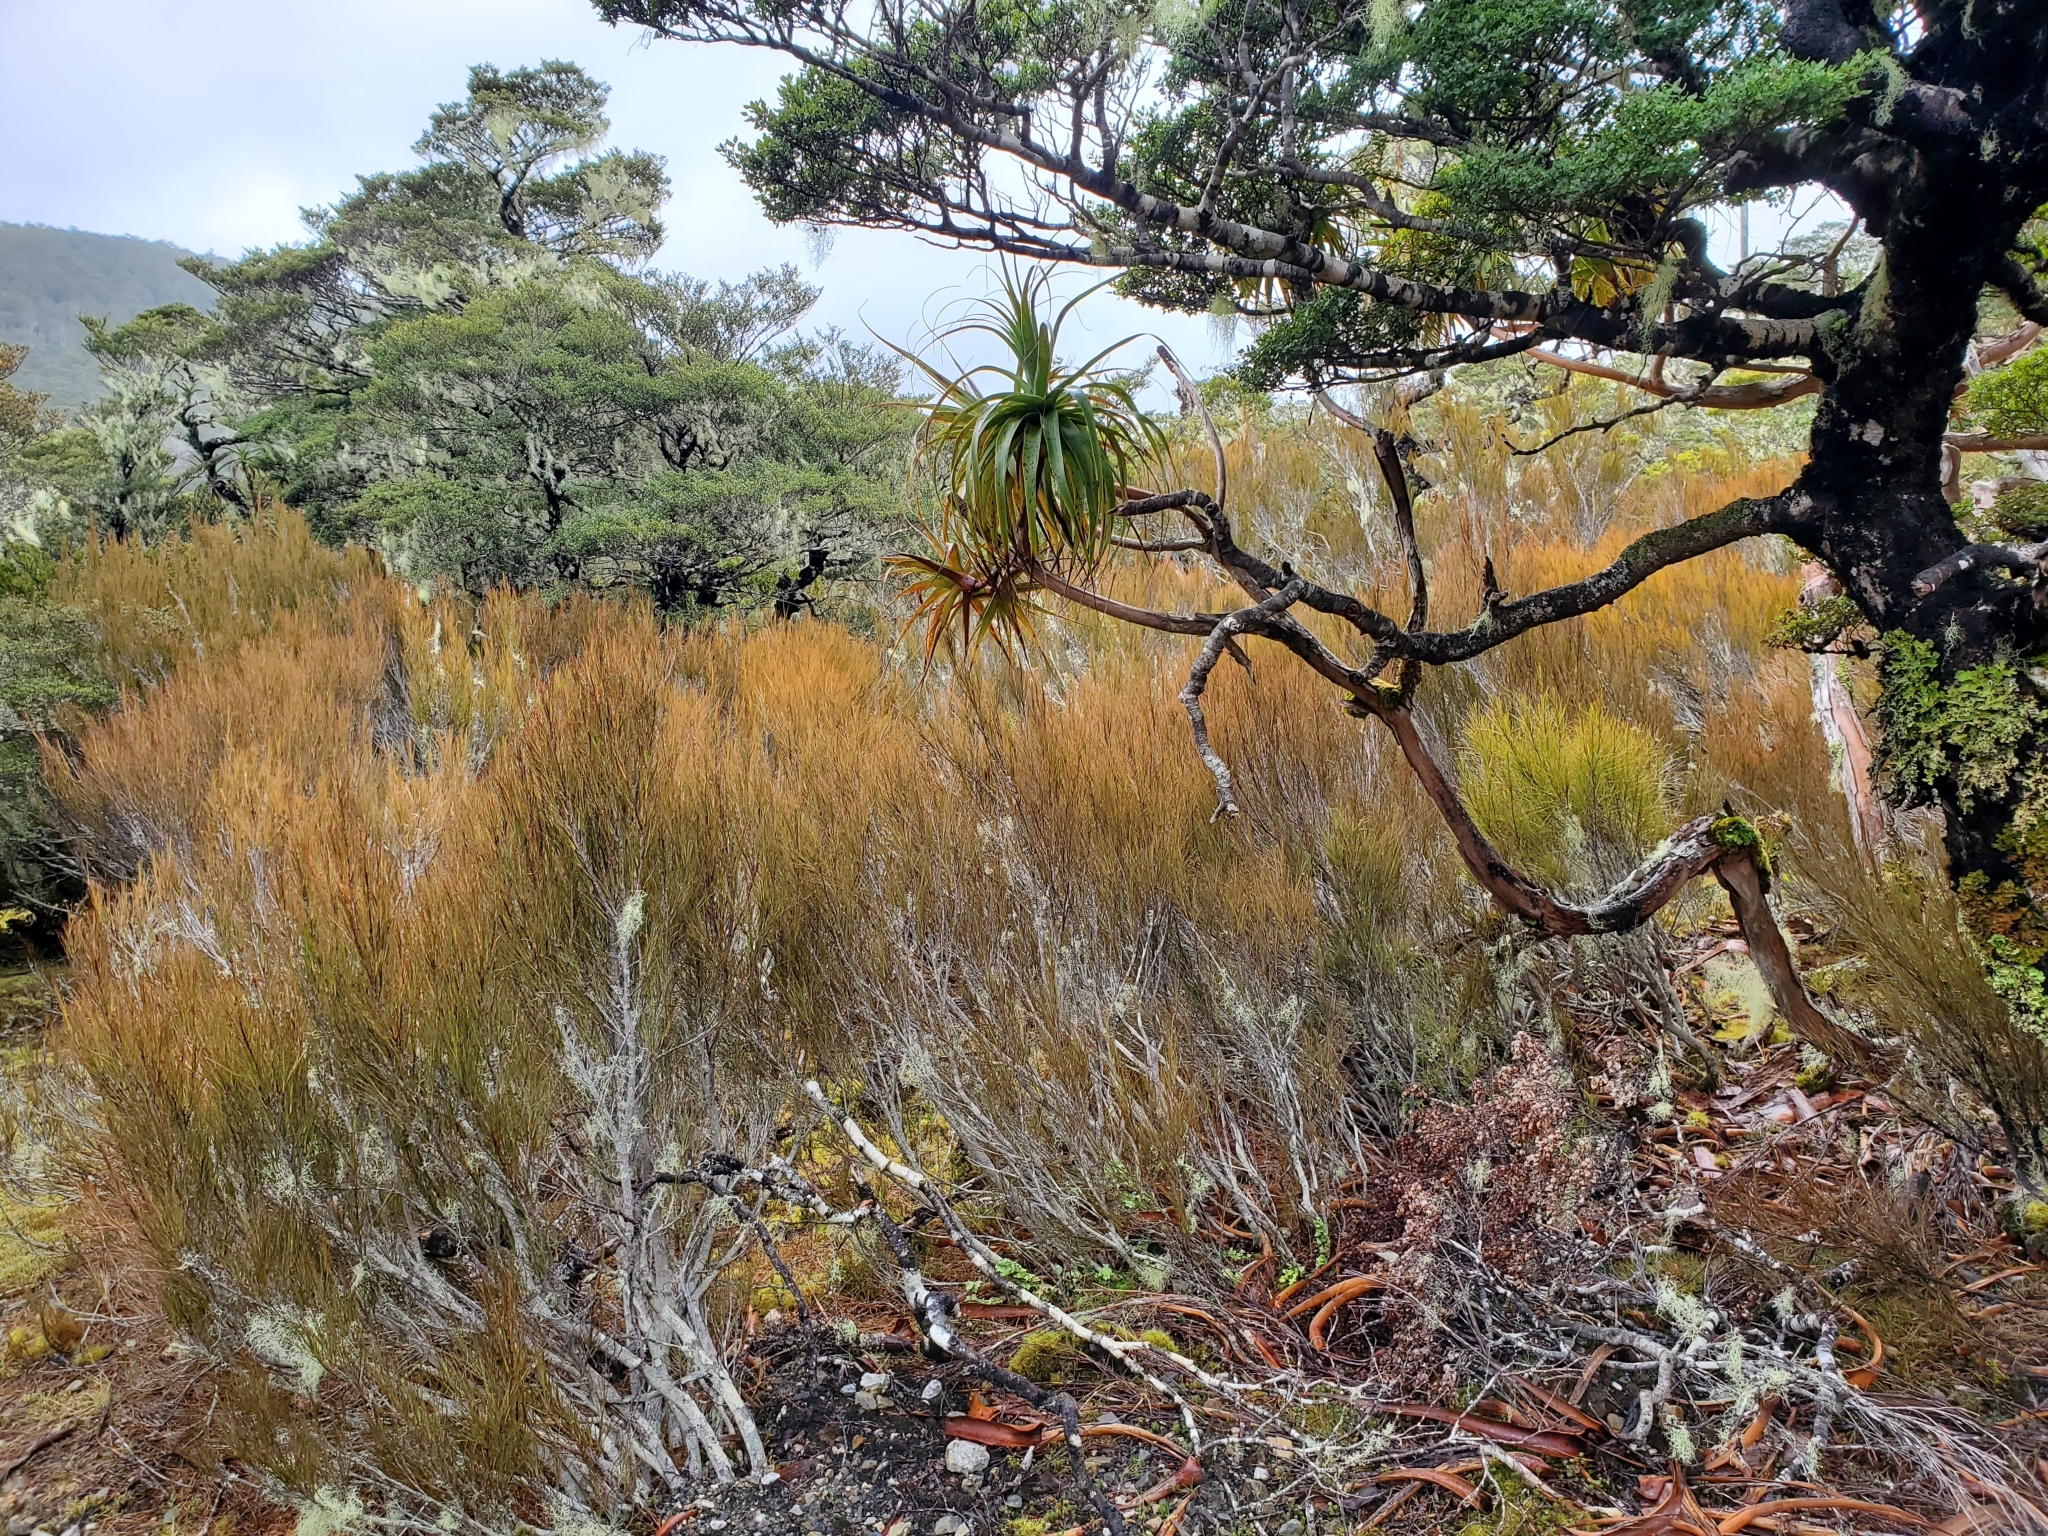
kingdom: Plantae
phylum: Tracheophyta
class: Magnoliopsida
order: Ericales
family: Ericaceae
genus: Dracophyllum
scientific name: Dracophyllum longifolium
